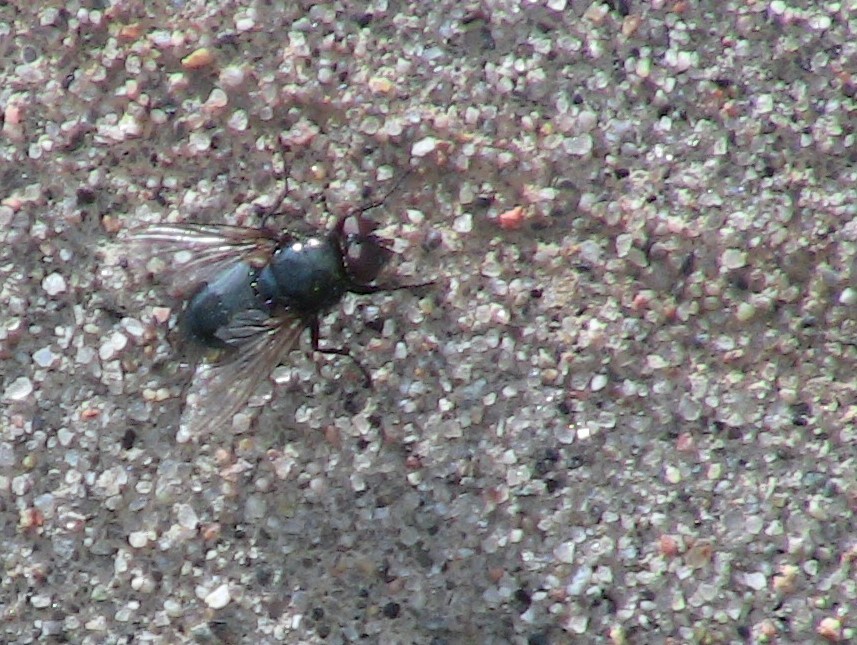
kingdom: Animalia
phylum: Arthropoda
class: Insecta
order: Diptera
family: Calliphoridae
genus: Protophormia
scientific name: Protophormia terraenovae
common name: Blackbottle
